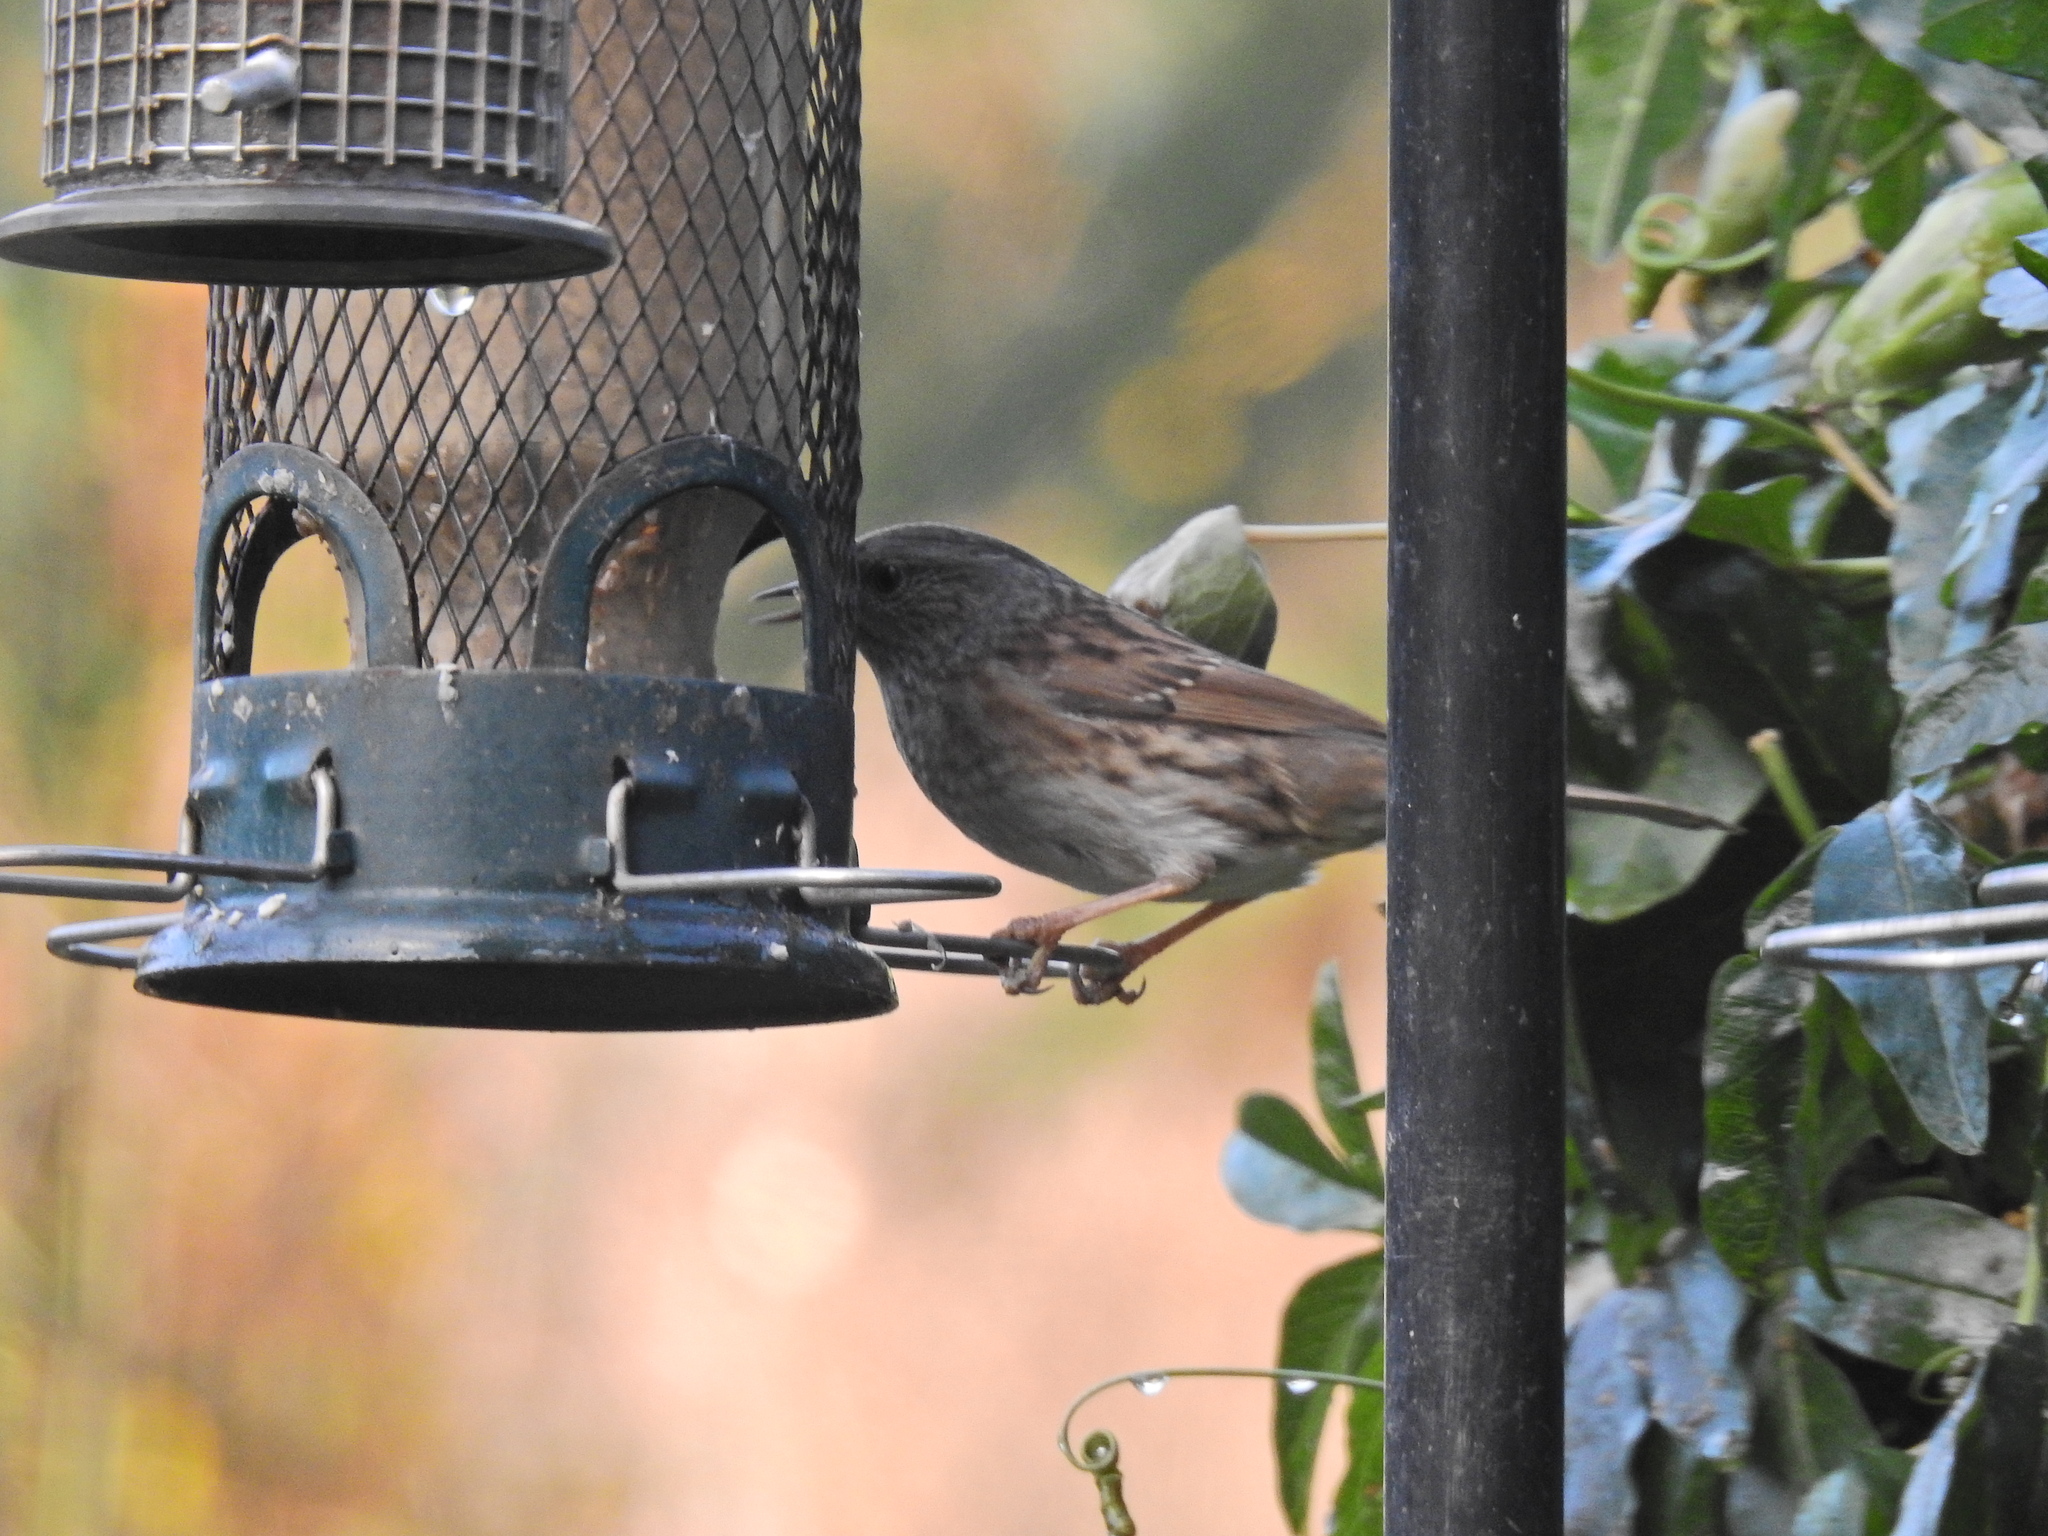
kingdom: Animalia
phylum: Chordata
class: Aves
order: Passeriformes
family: Prunellidae
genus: Prunella
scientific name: Prunella modularis
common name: Dunnock
